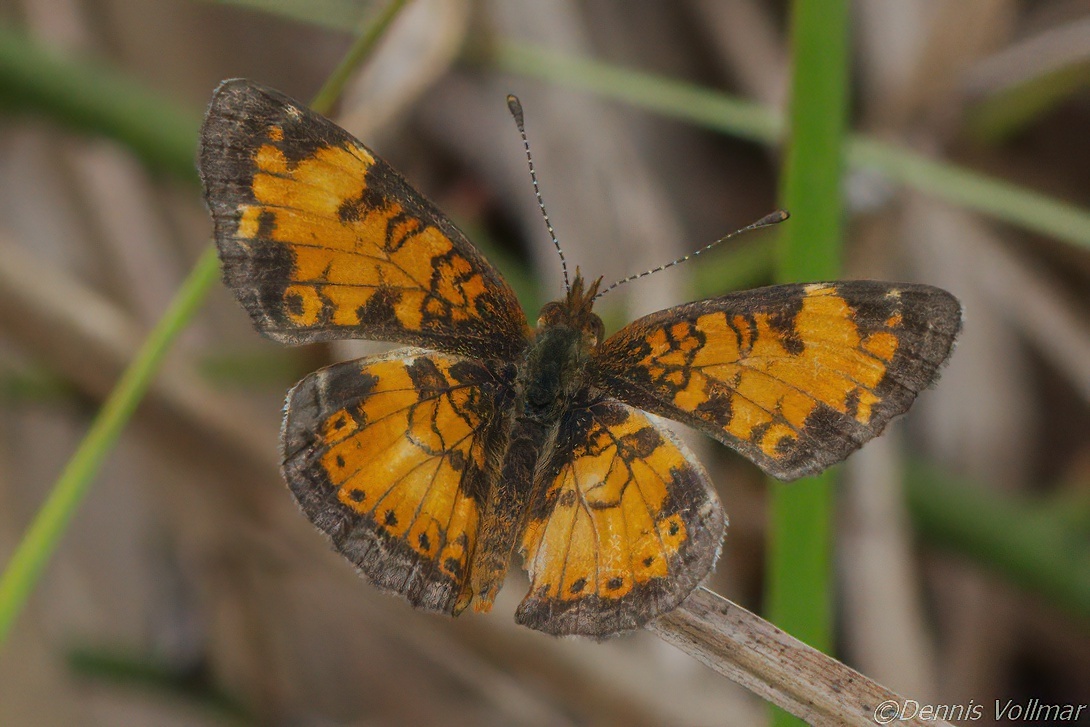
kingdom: Animalia
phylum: Arthropoda
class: Insecta
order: Lepidoptera
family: Nymphalidae
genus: Phyciodes
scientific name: Phyciodes tharos
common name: Pearl crescent
